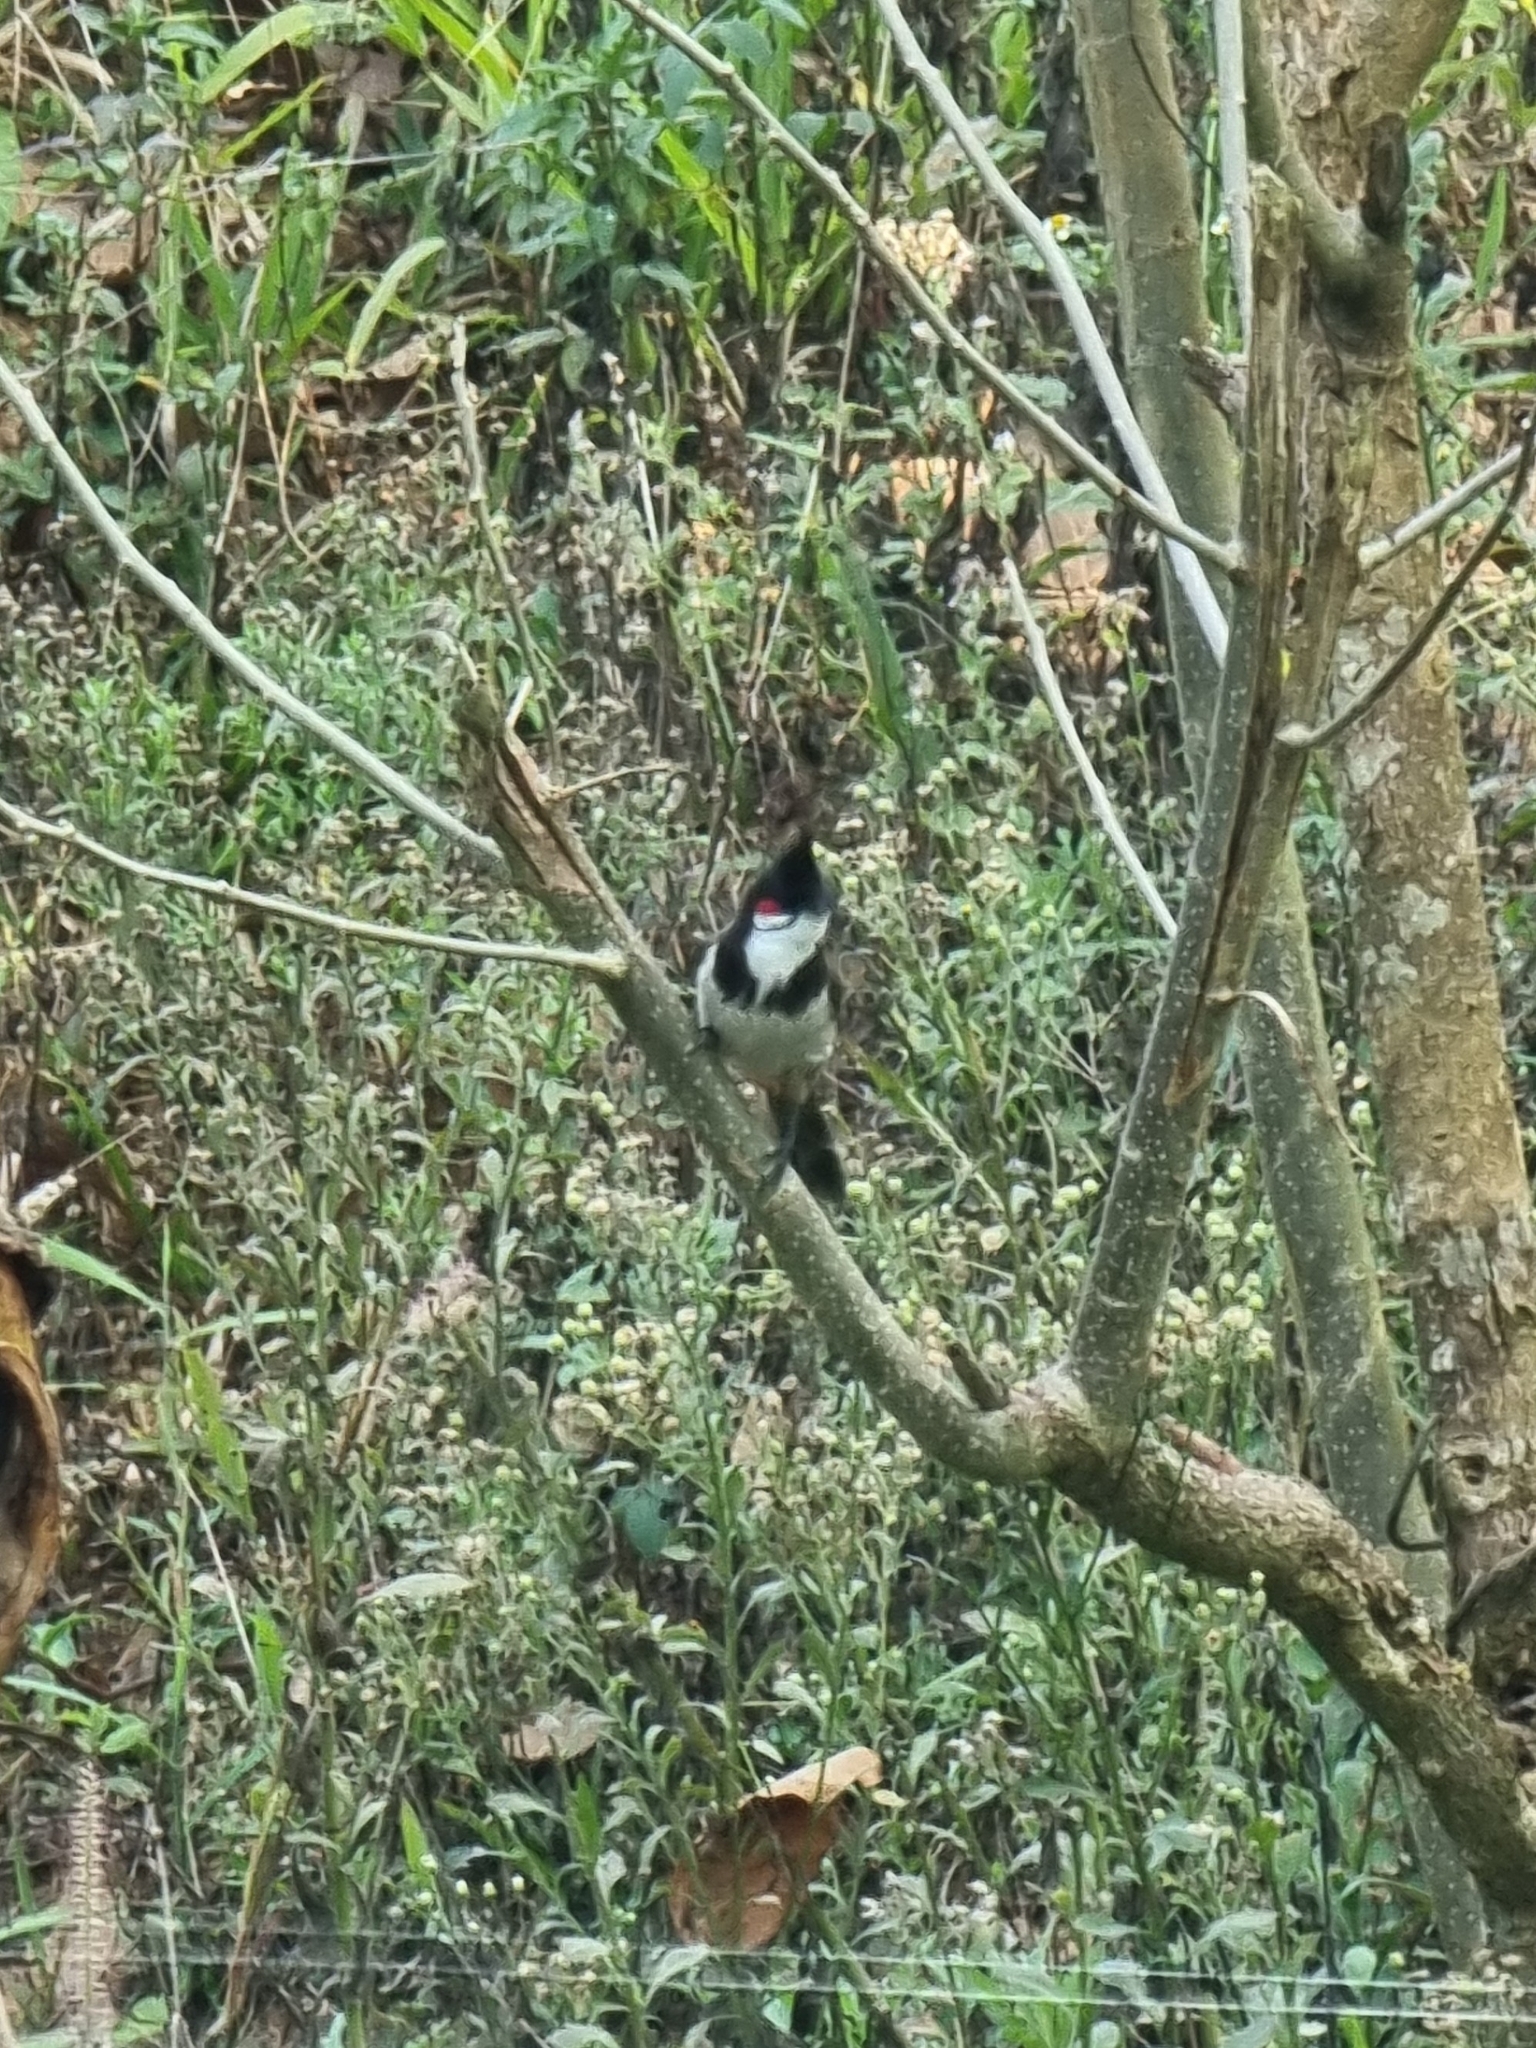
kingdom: Animalia
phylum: Chordata
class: Aves
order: Passeriformes
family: Pycnonotidae
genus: Pycnonotus
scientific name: Pycnonotus jocosus
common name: Red-whiskered bulbul
